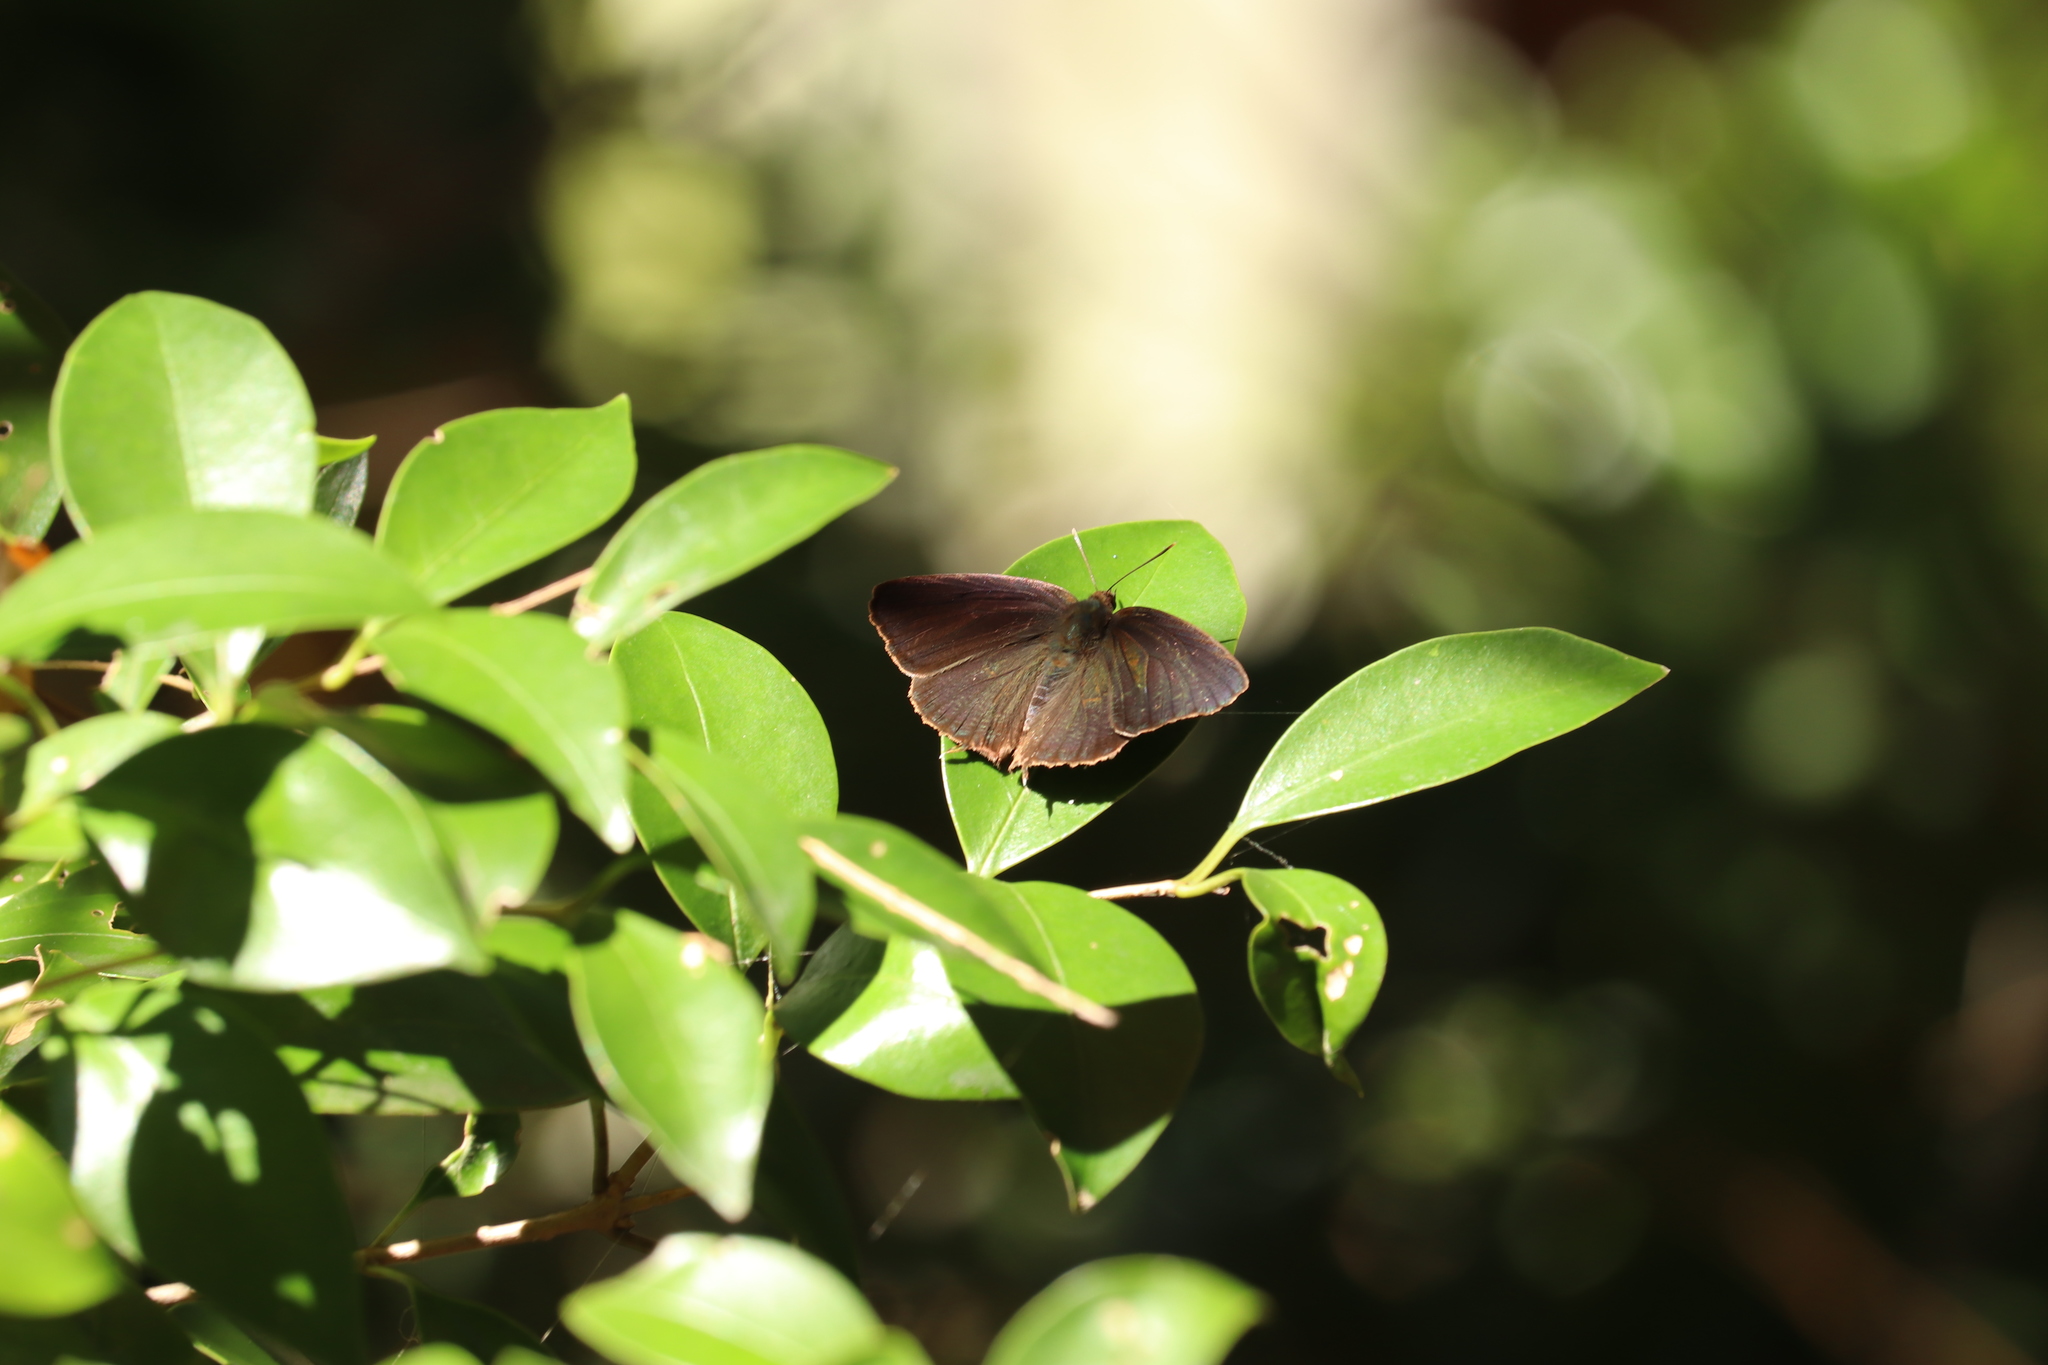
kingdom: Animalia
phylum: Arthropoda
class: Insecta
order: Lepidoptera
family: Lycaenidae
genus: Arhopala
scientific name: Arhopala bazalus
